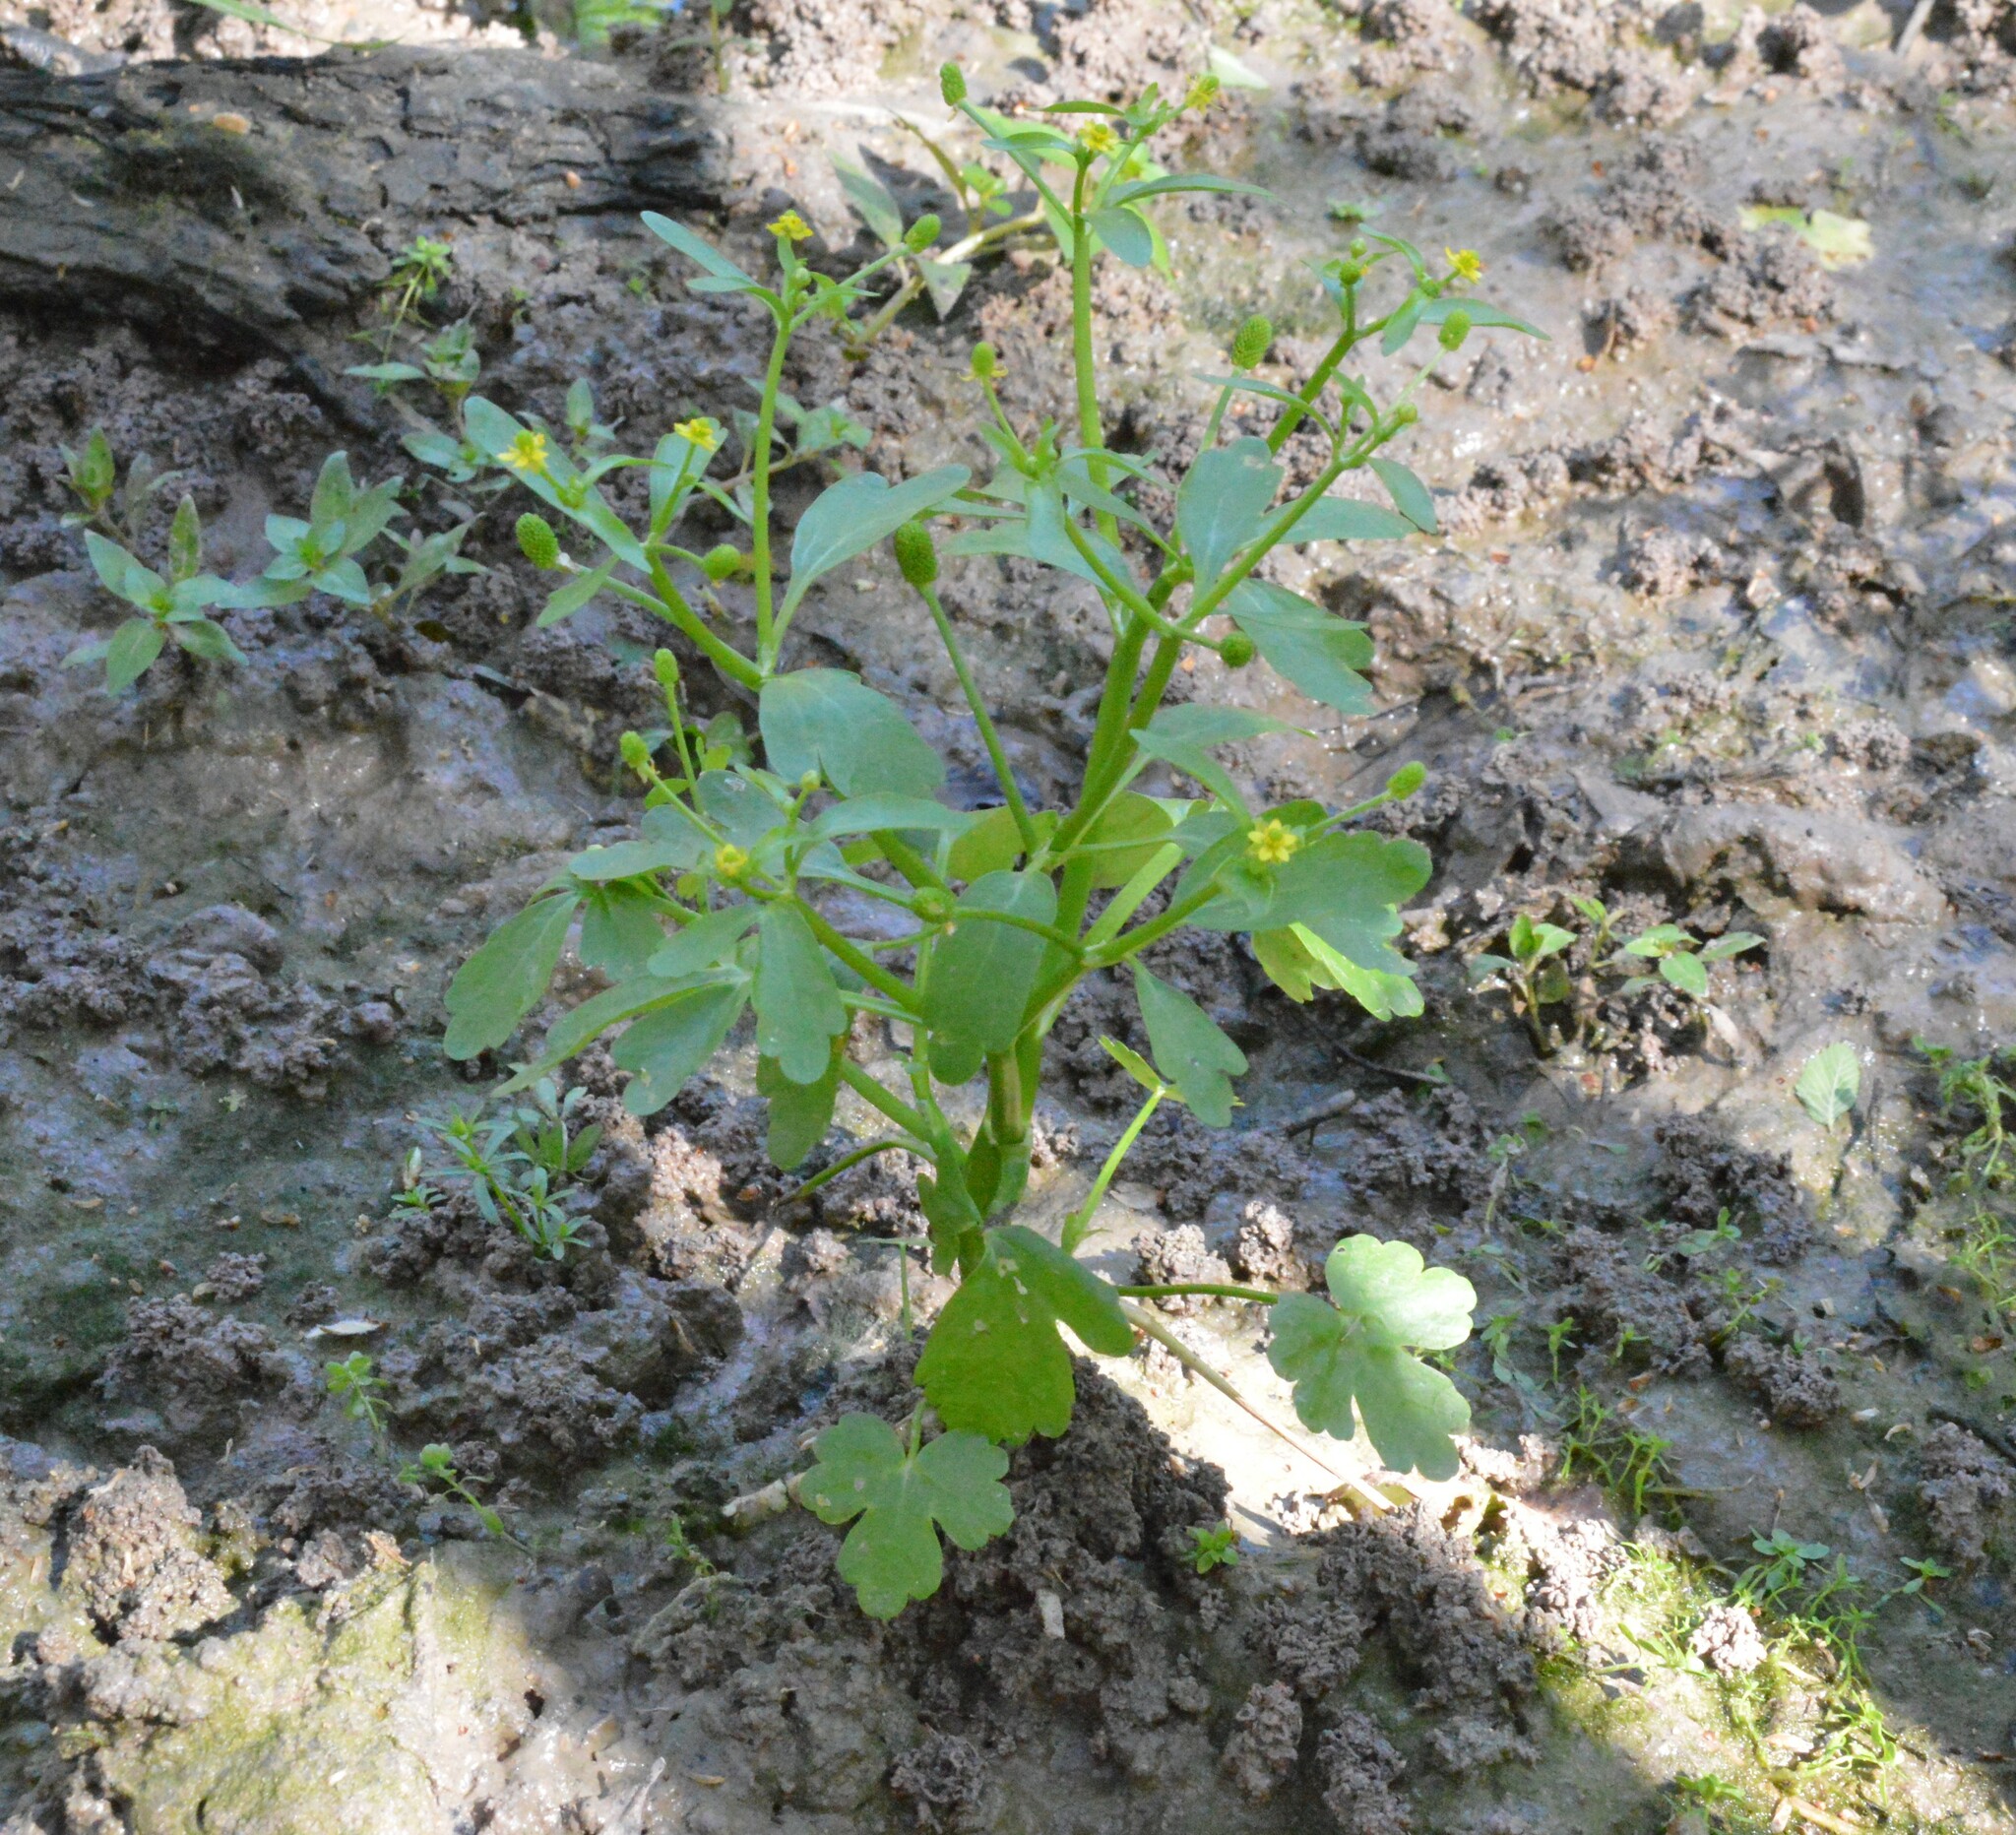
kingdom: Plantae
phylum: Tracheophyta
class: Magnoliopsida
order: Ranunculales
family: Ranunculaceae
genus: Ranunculus
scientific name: Ranunculus sceleratus
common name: Celery-leaved buttercup
